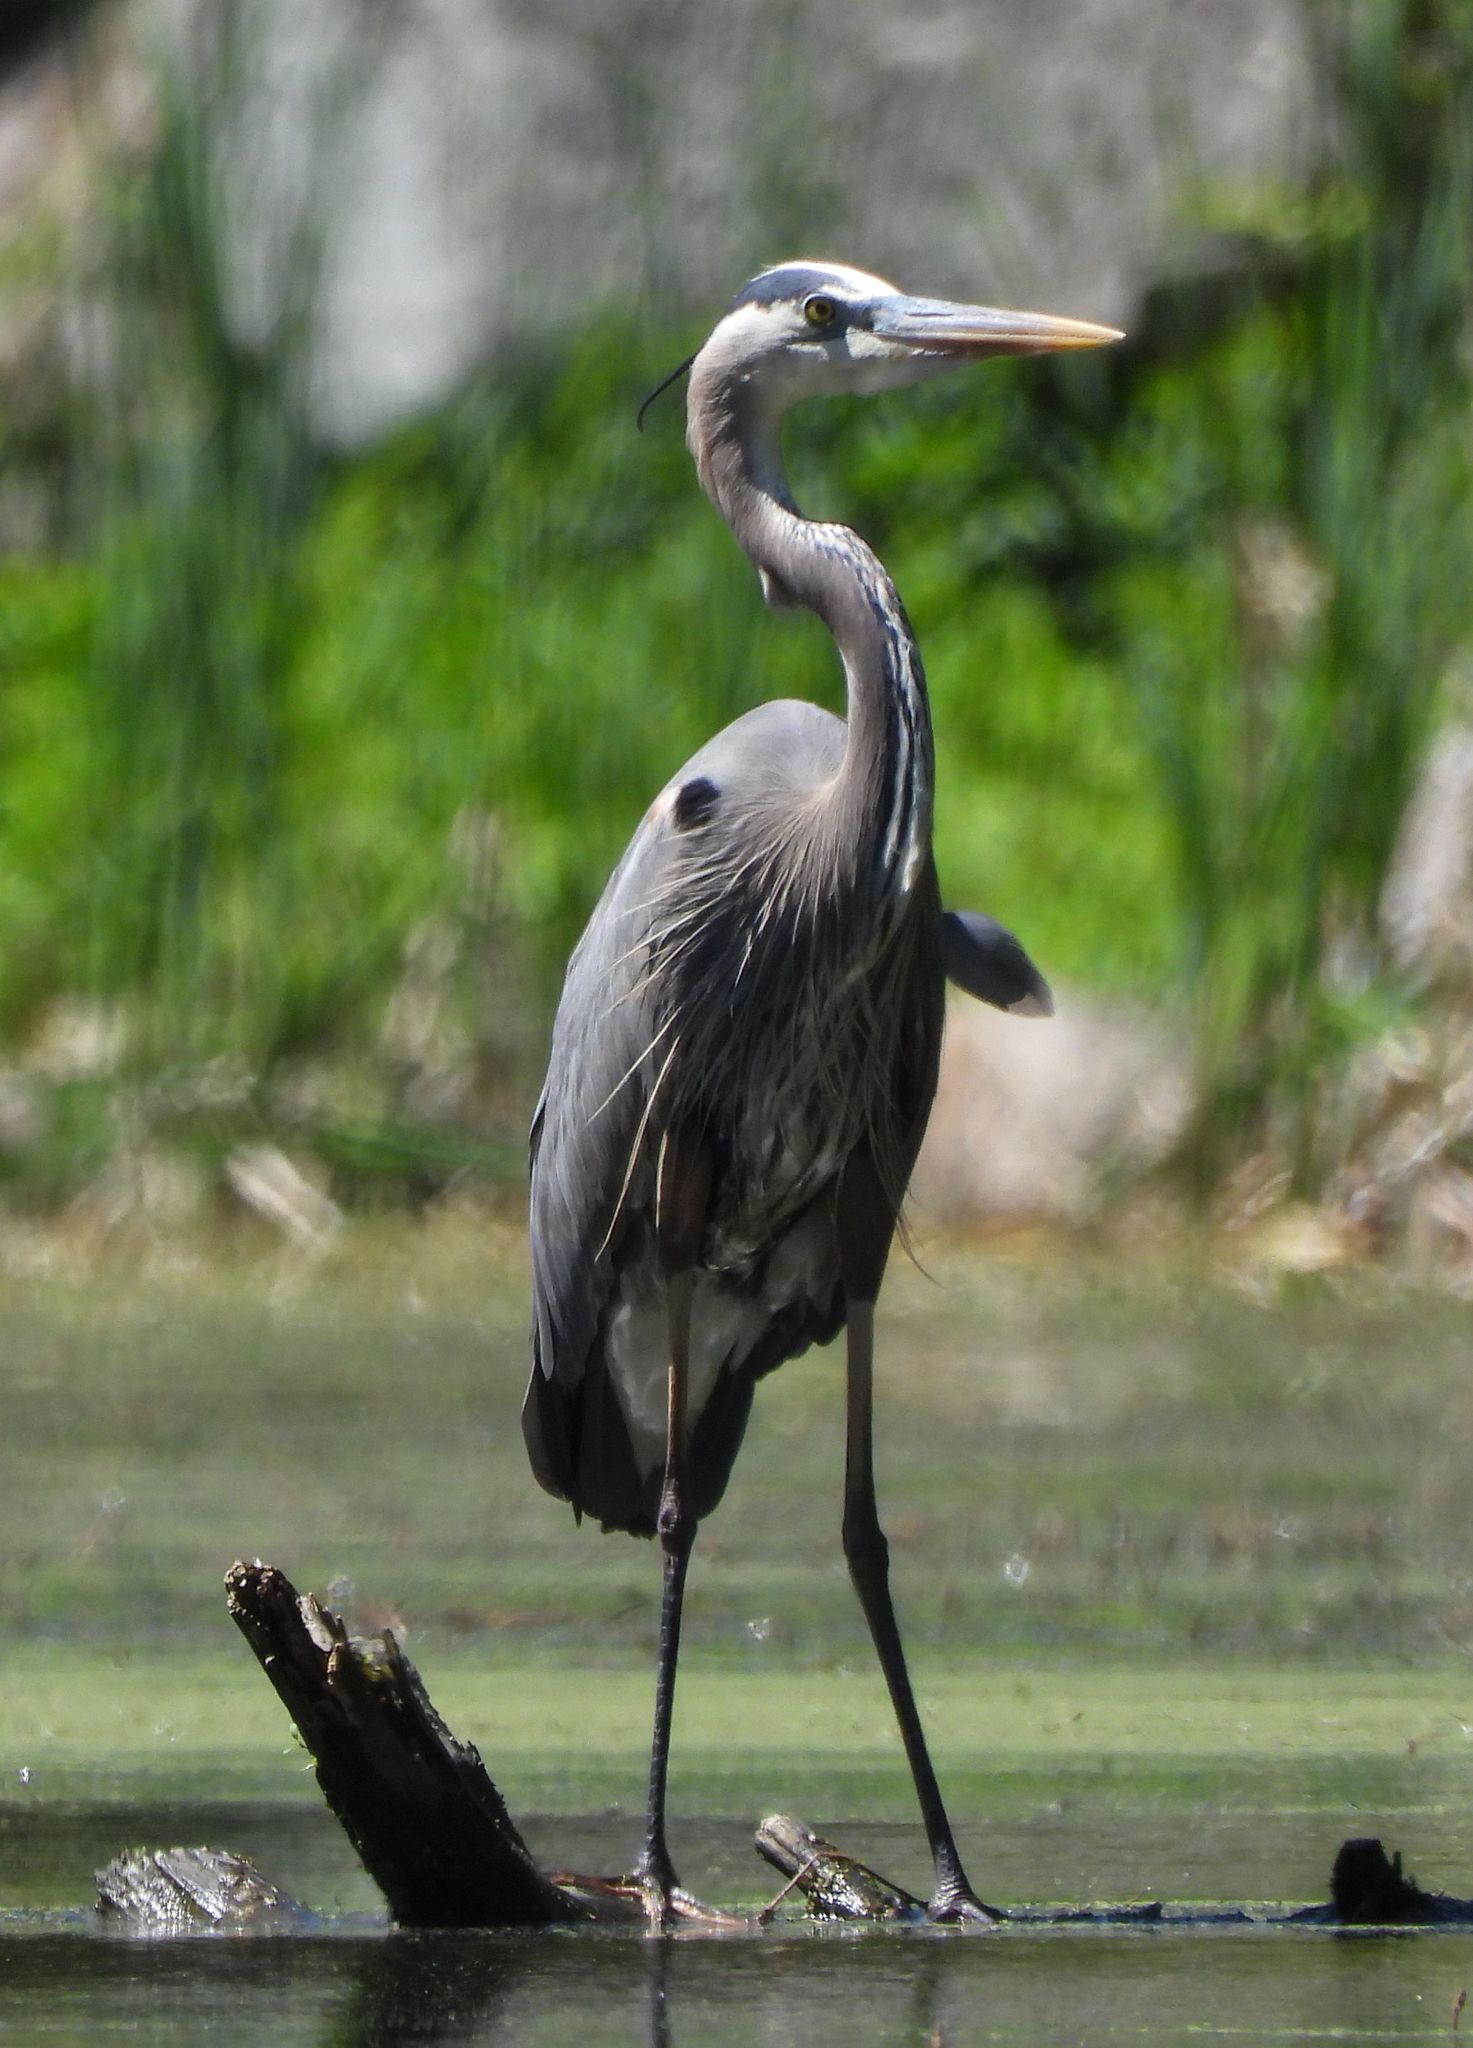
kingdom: Animalia
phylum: Chordata
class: Aves
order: Pelecaniformes
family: Ardeidae
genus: Ardea
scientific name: Ardea herodias
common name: Great blue heron
